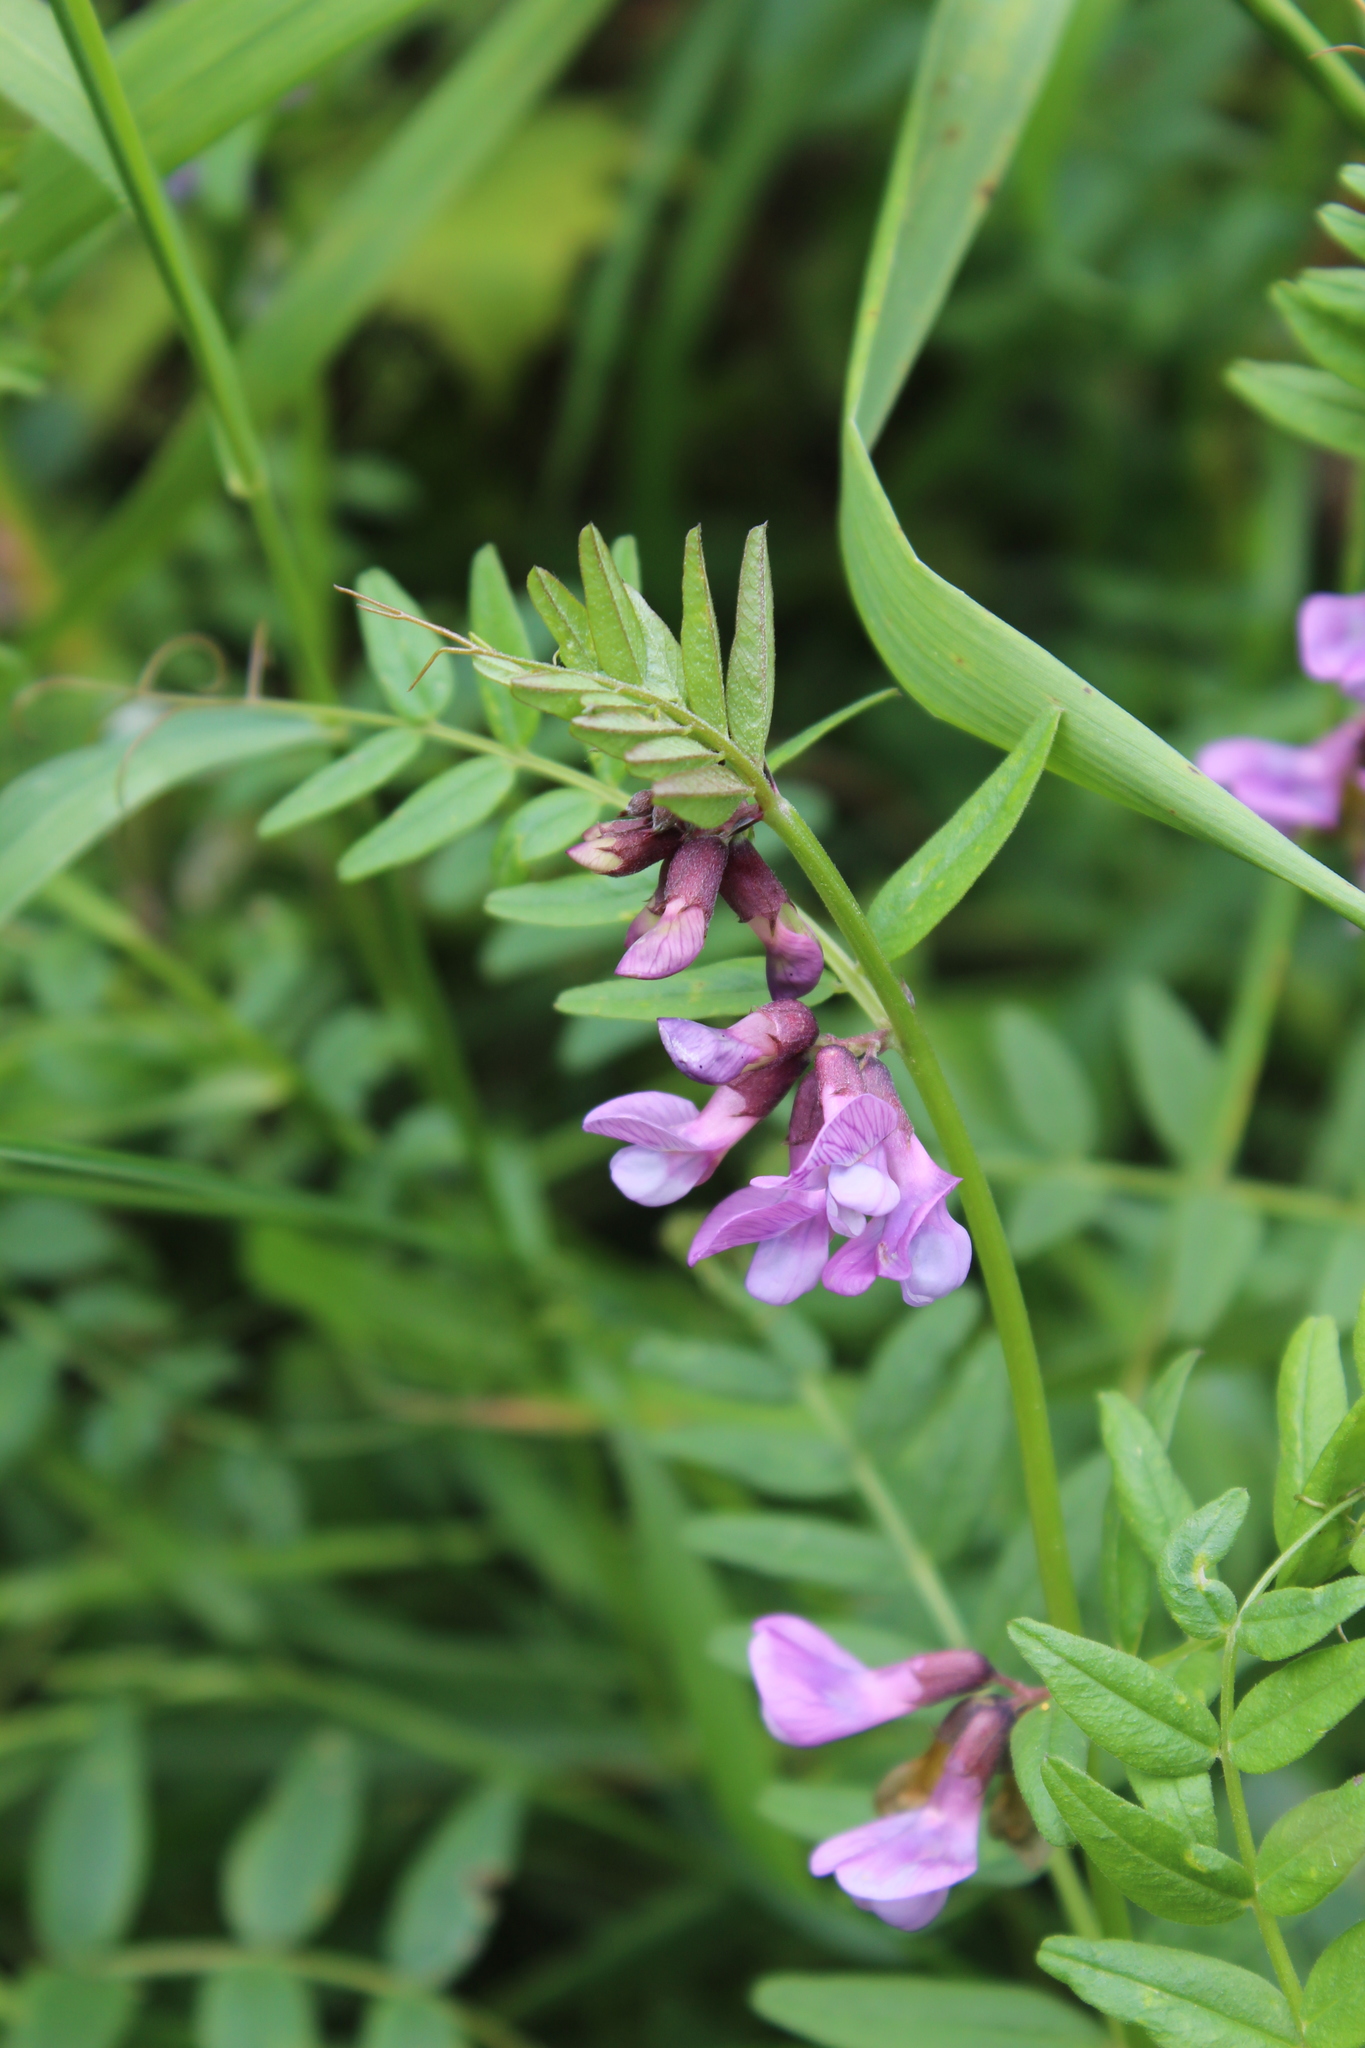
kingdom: Plantae
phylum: Tracheophyta
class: Magnoliopsida
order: Fabales
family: Fabaceae
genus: Vicia
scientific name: Vicia sepium
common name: Bush vetch
